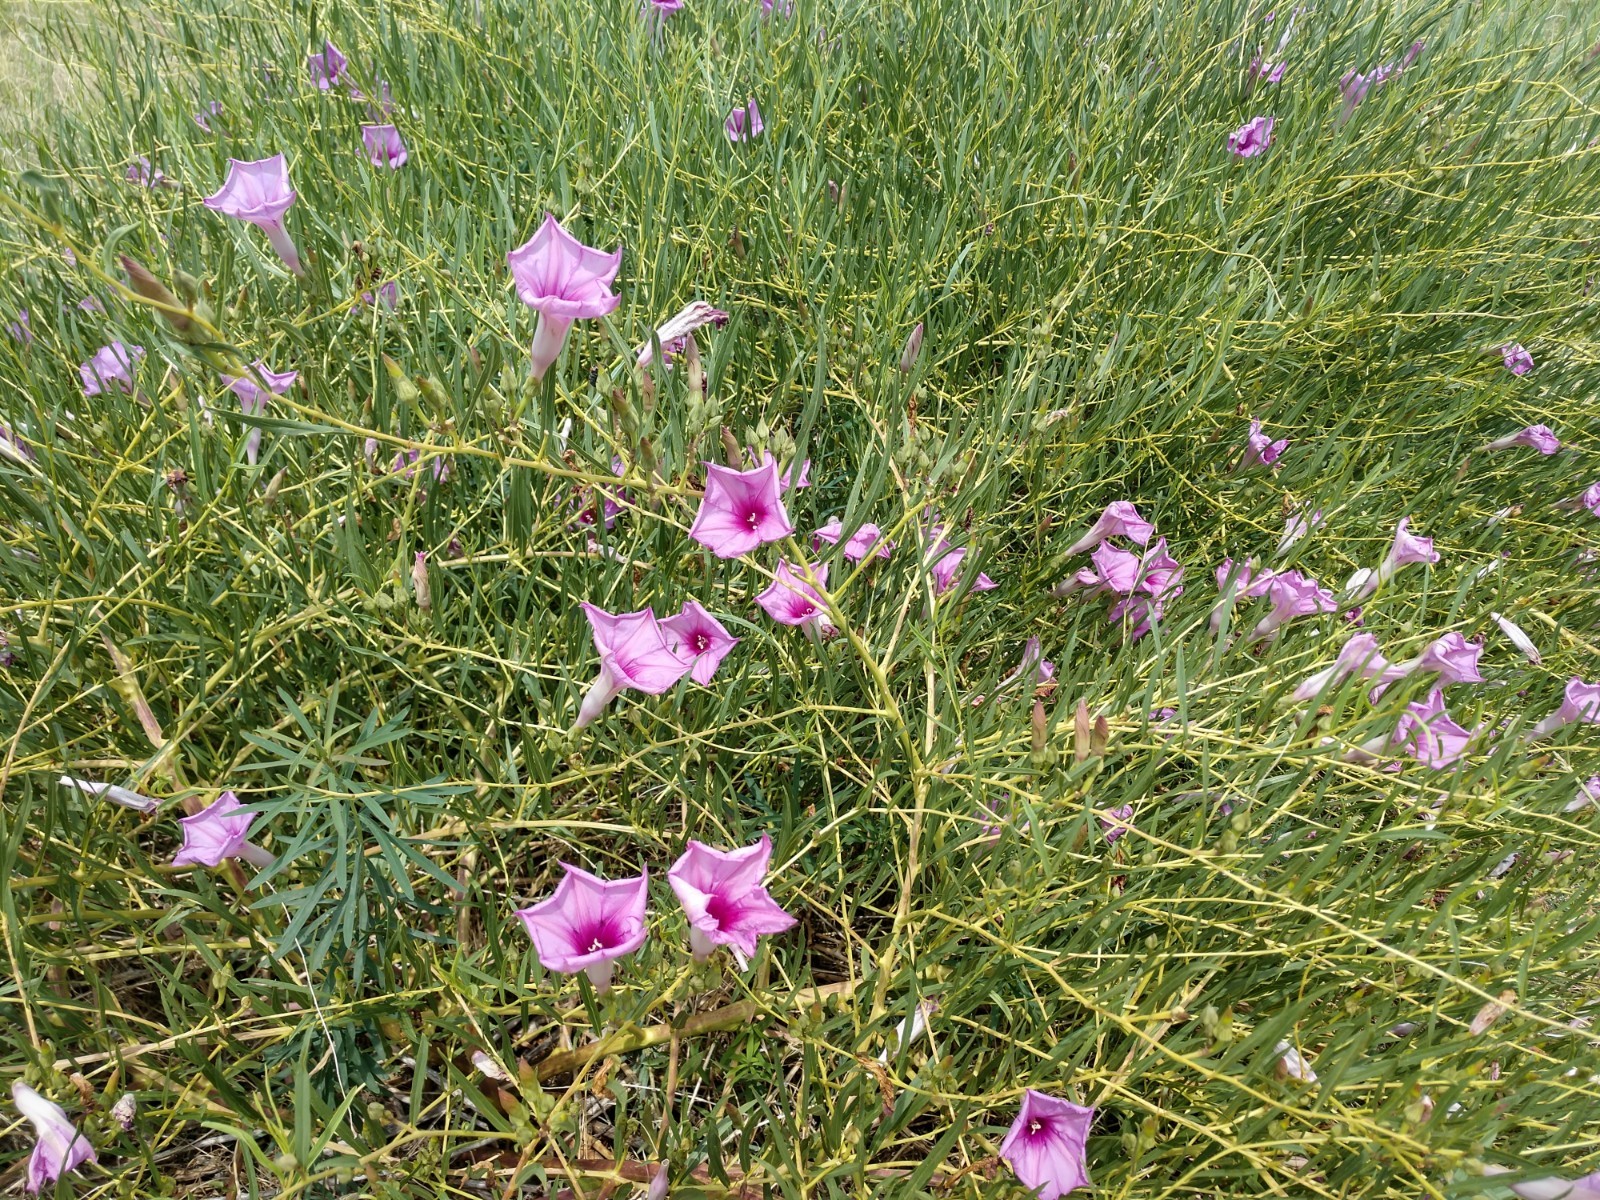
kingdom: Plantae
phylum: Tracheophyta
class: Magnoliopsida
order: Solanales
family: Convolvulaceae
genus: Ipomoea
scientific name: Ipomoea leptophylla
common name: Bush moonflower
